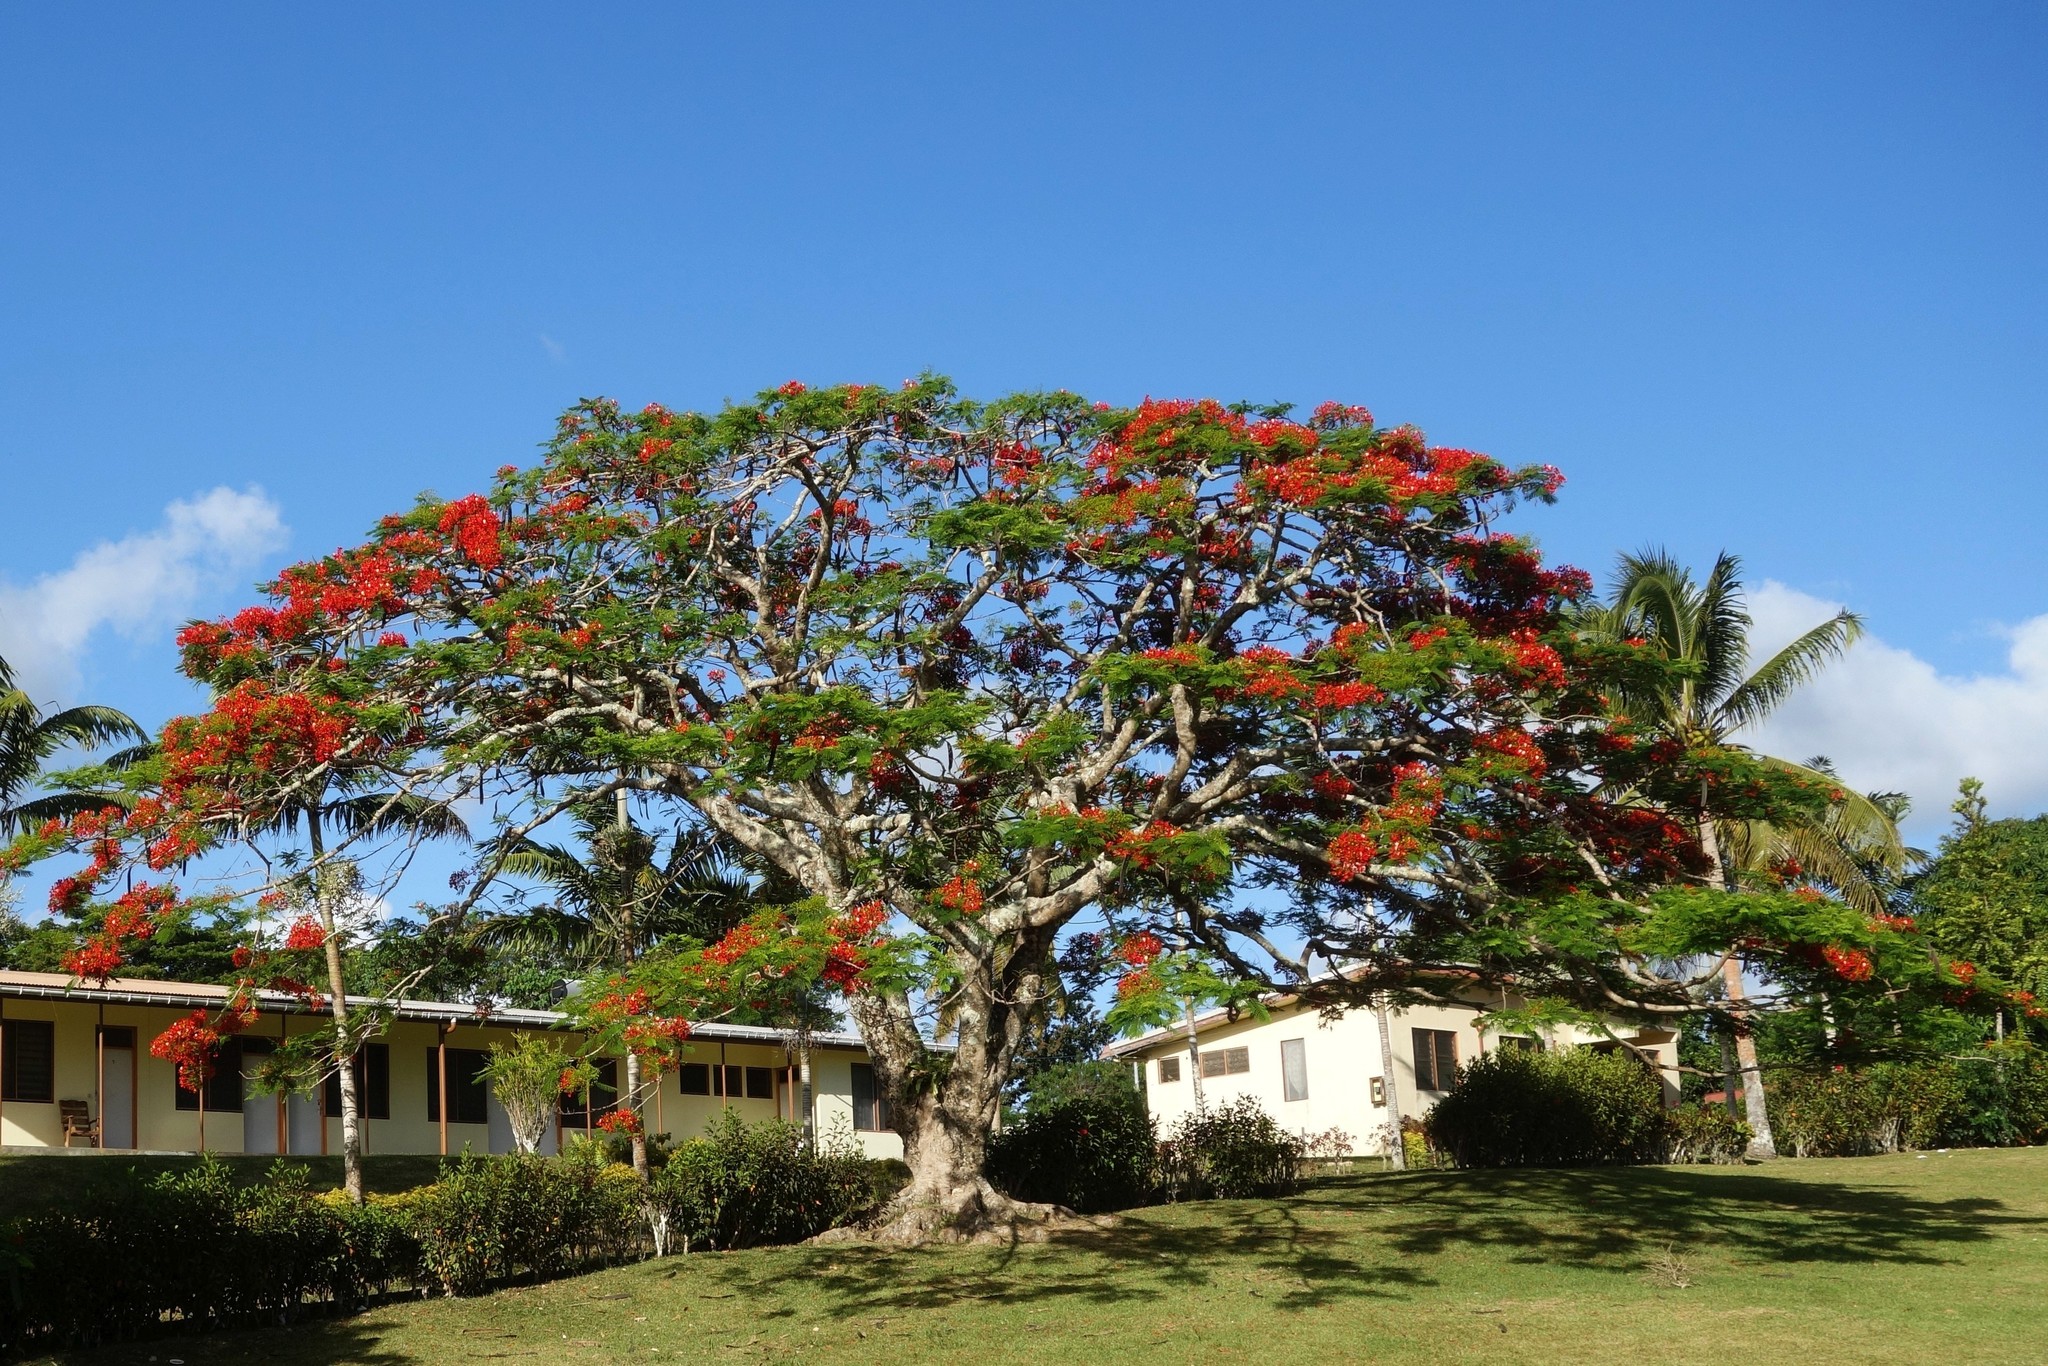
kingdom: Plantae
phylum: Tracheophyta
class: Magnoliopsida
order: Fabales
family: Fabaceae
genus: Delonix
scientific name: Delonix regia
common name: Royal poinciana
